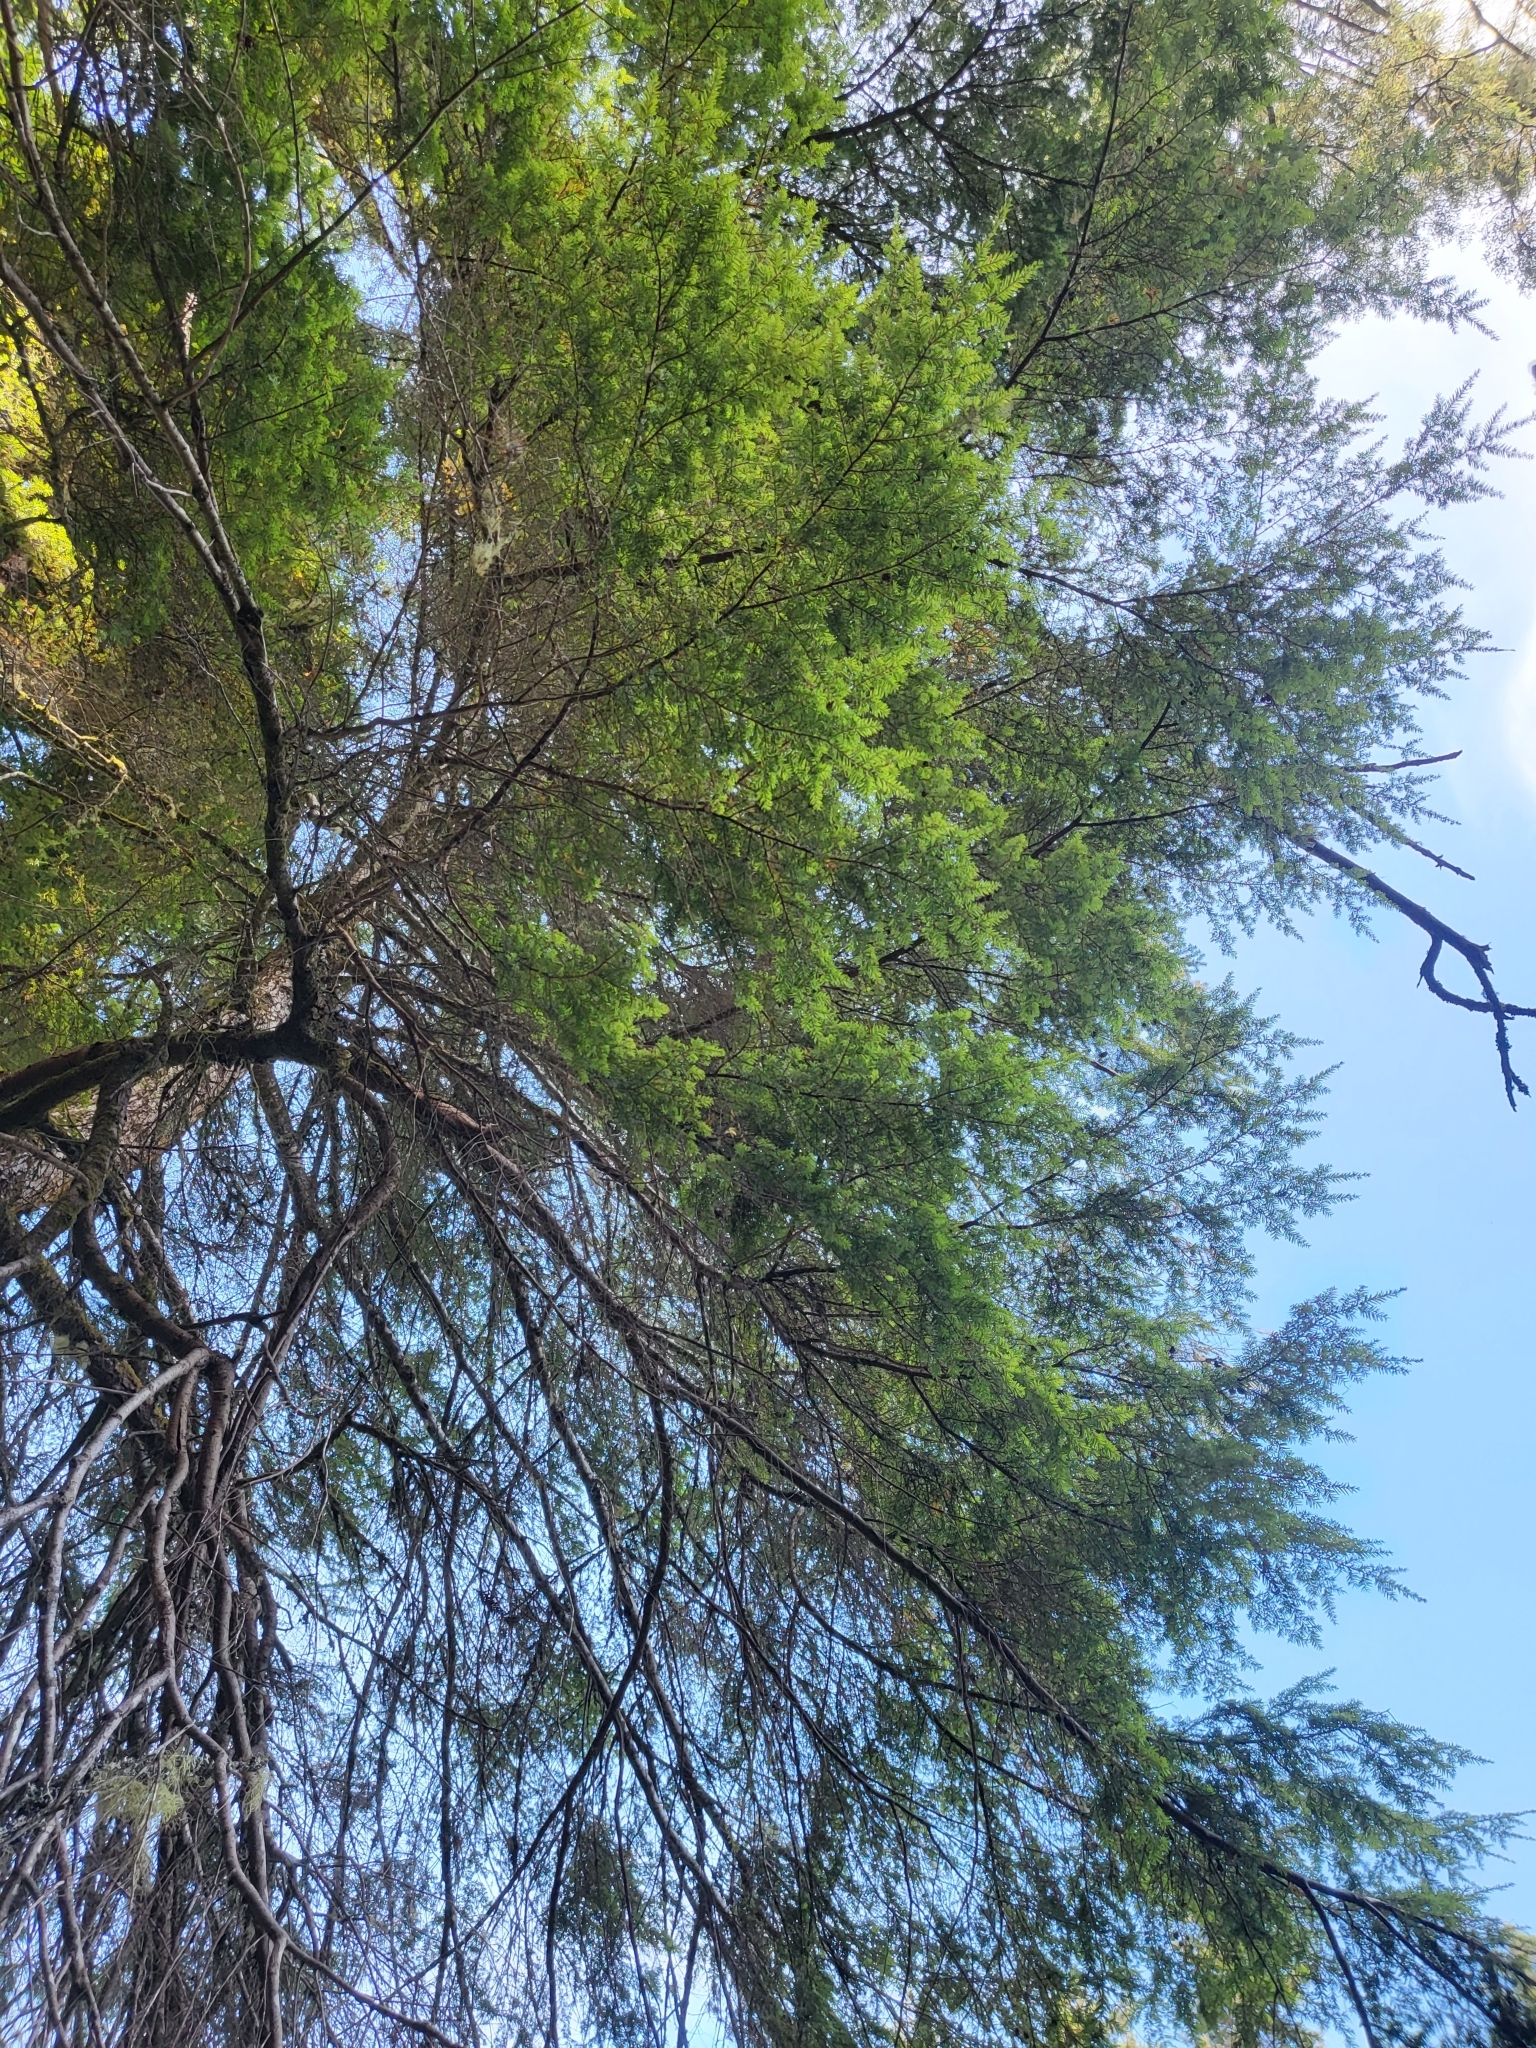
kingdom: Plantae
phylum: Tracheophyta
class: Pinopsida
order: Pinales
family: Pinaceae
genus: Tsuga
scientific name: Tsuga heterophylla
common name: Western hemlock
